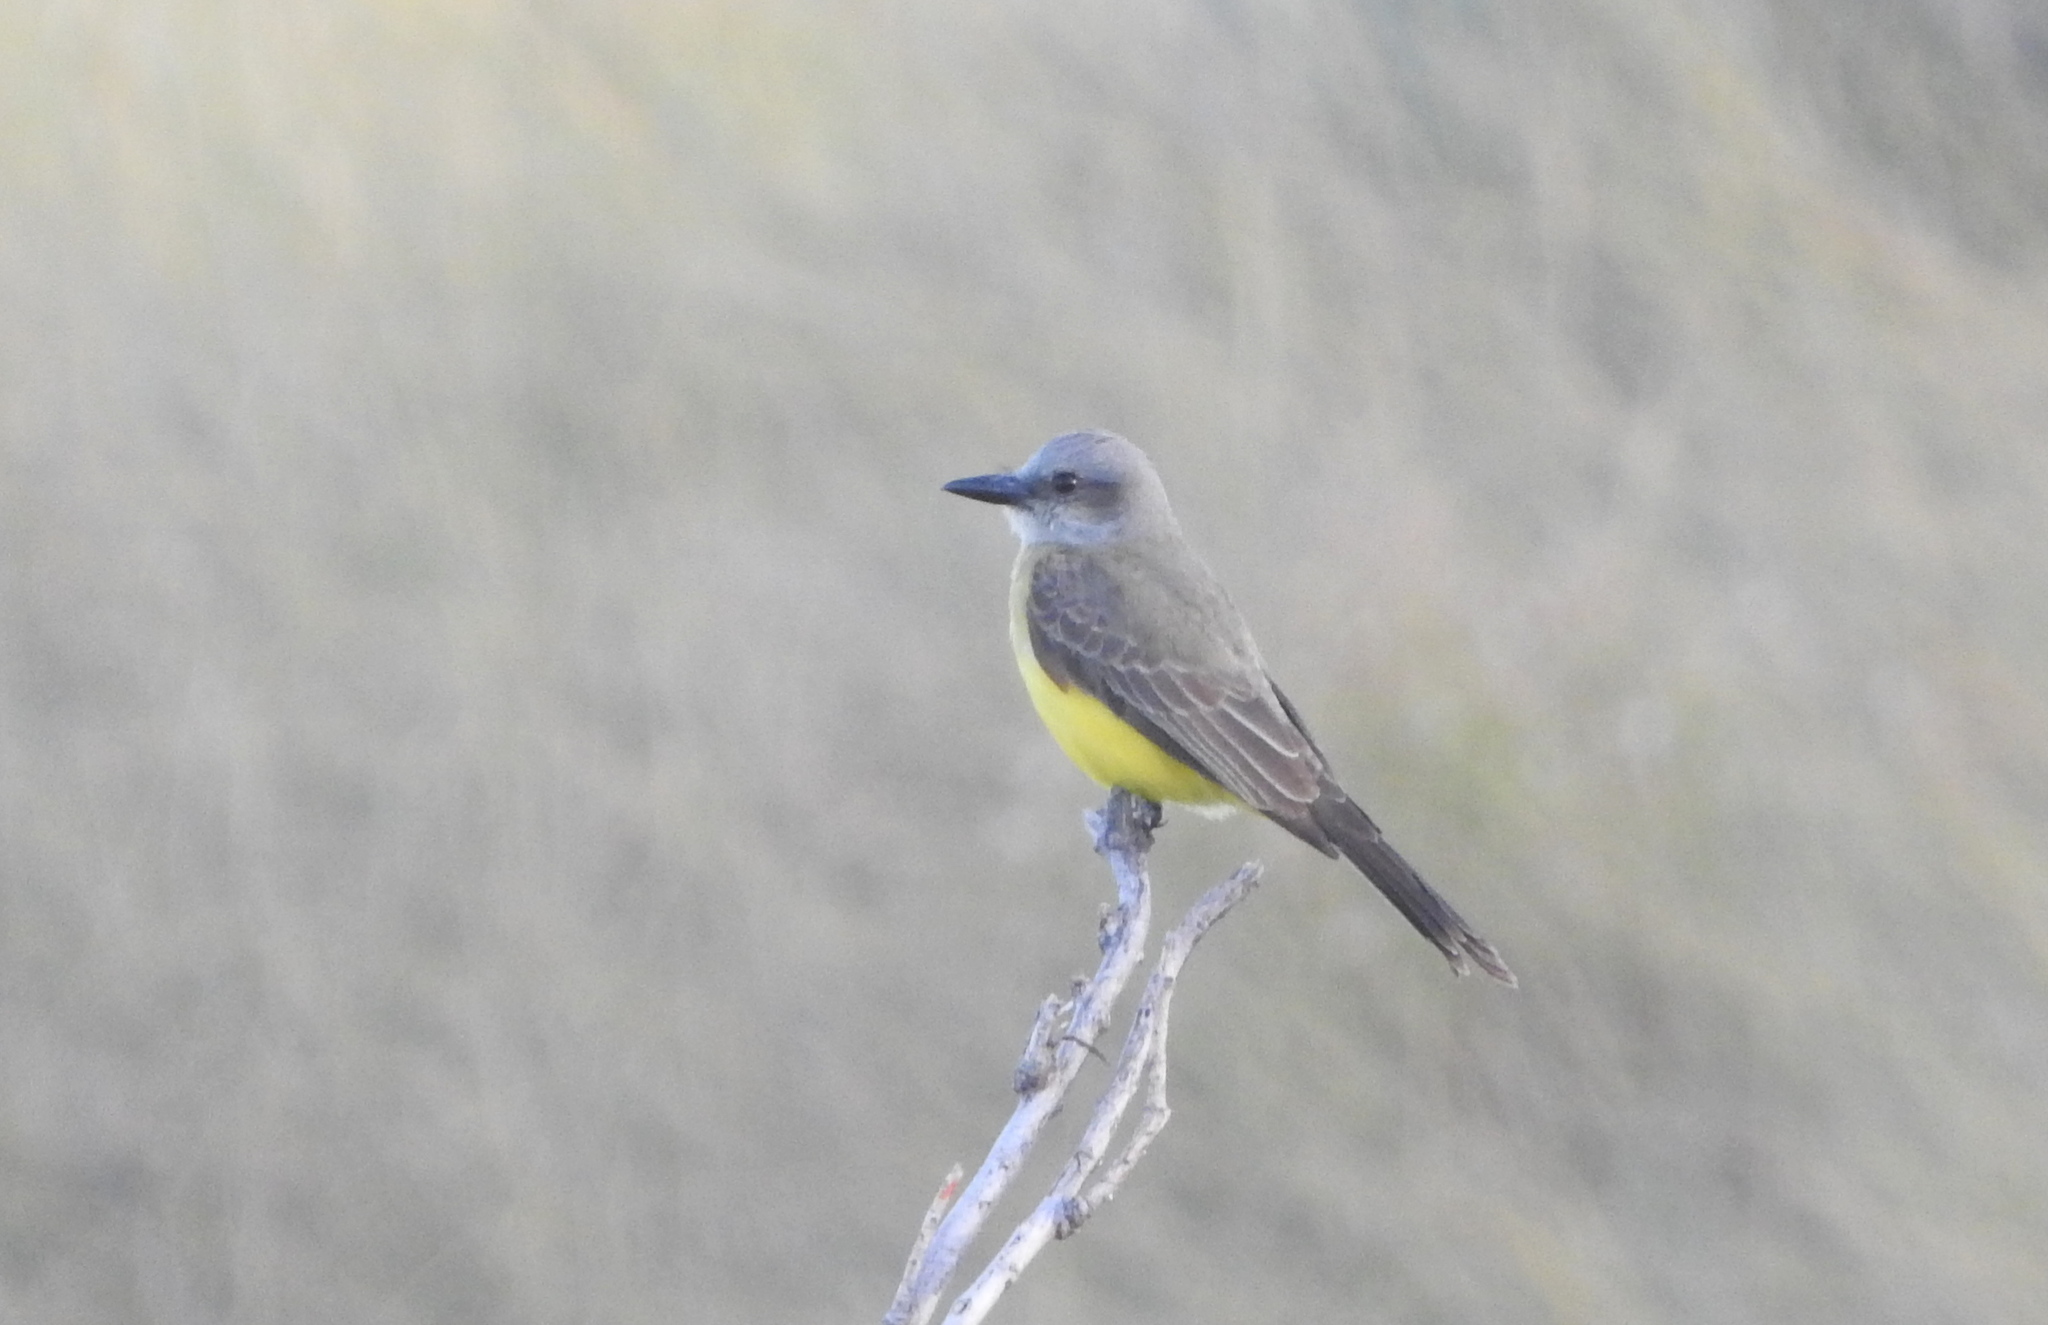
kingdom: Animalia
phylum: Chordata
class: Aves
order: Passeriformes
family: Tyrannidae
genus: Tyrannus
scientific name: Tyrannus melancholicus
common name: Tropical kingbird
